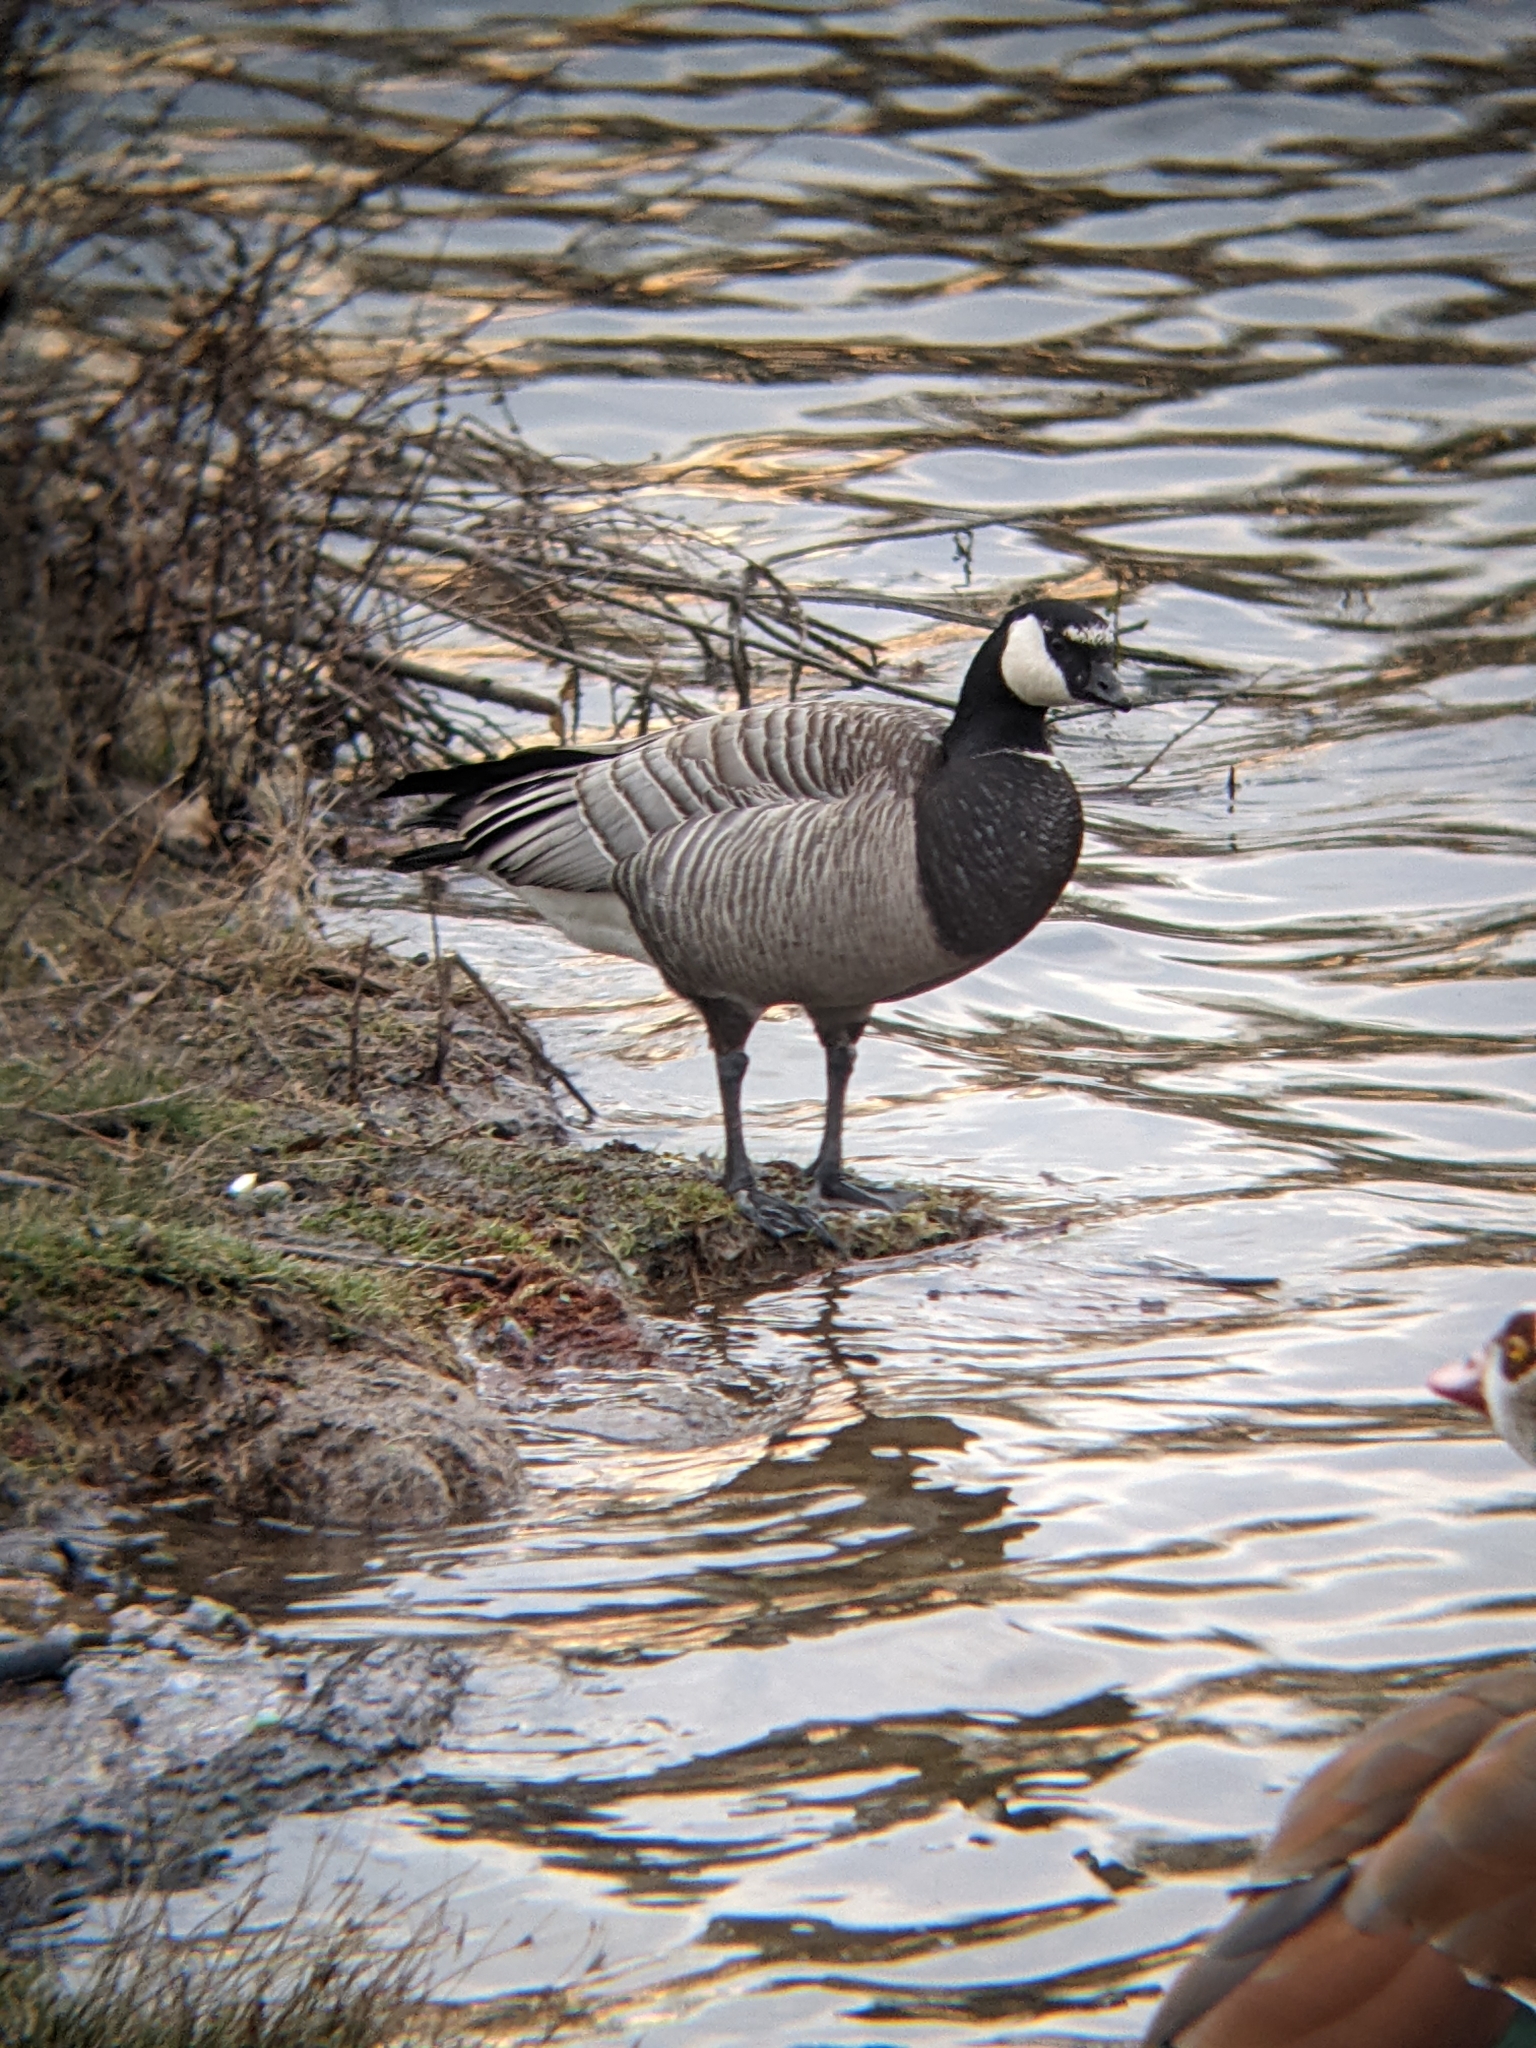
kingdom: Animalia
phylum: Chordata
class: Aves
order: Anseriformes
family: Anatidae
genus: Branta
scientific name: Branta
